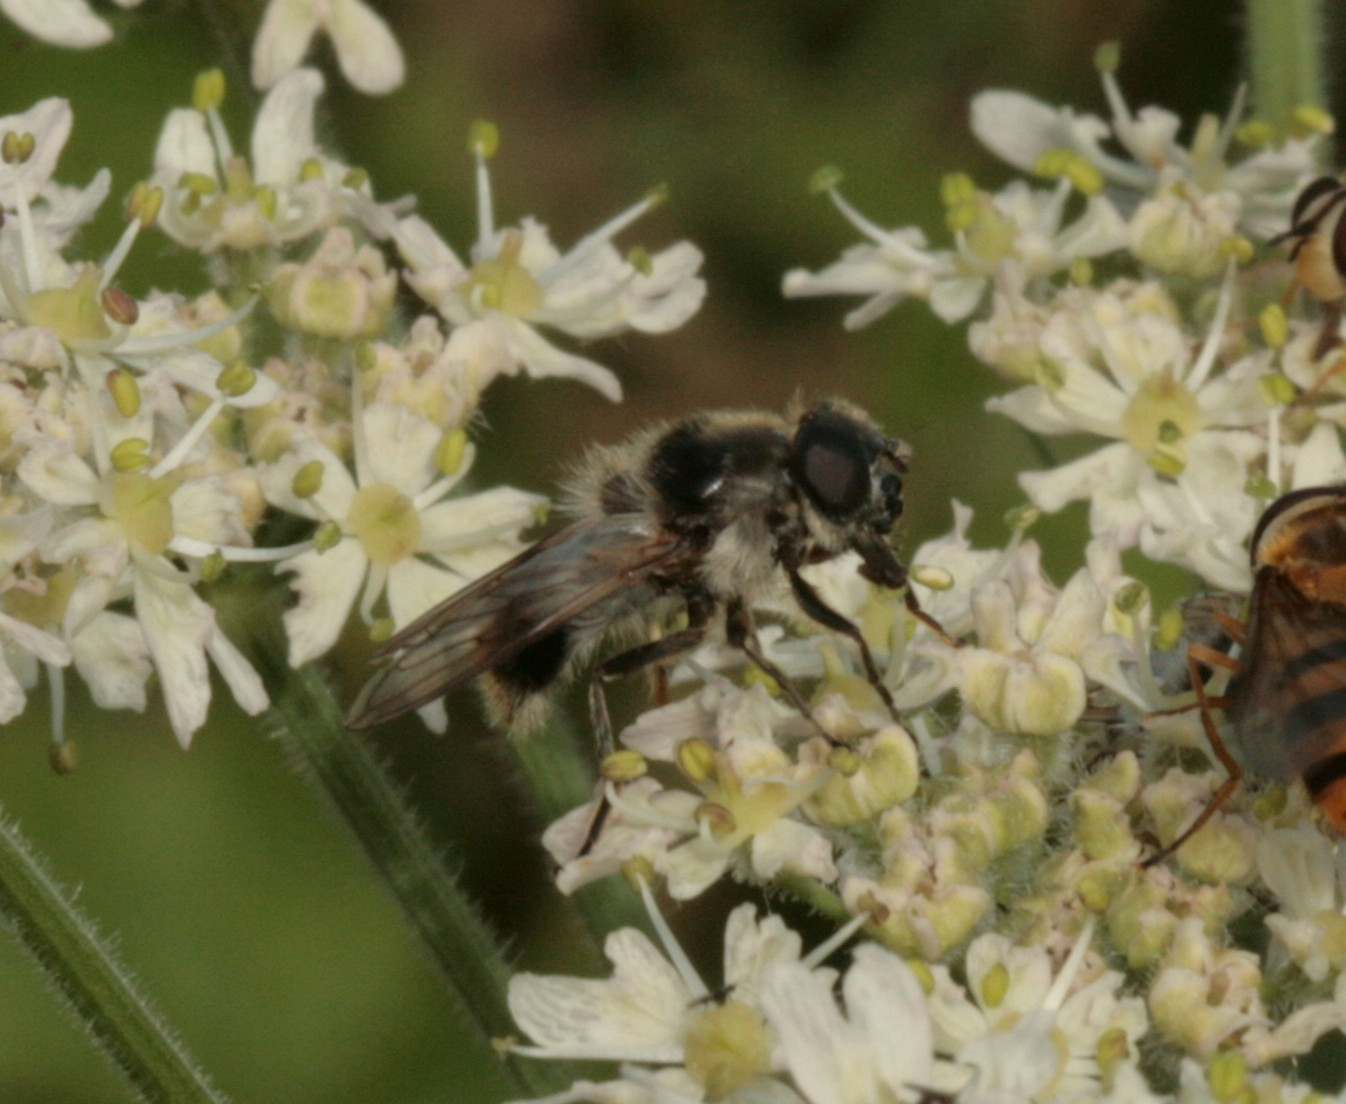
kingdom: Animalia
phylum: Arthropoda
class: Insecta
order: Diptera
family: Syrphidae
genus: Cheilosia
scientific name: Cheilosia illustrata
